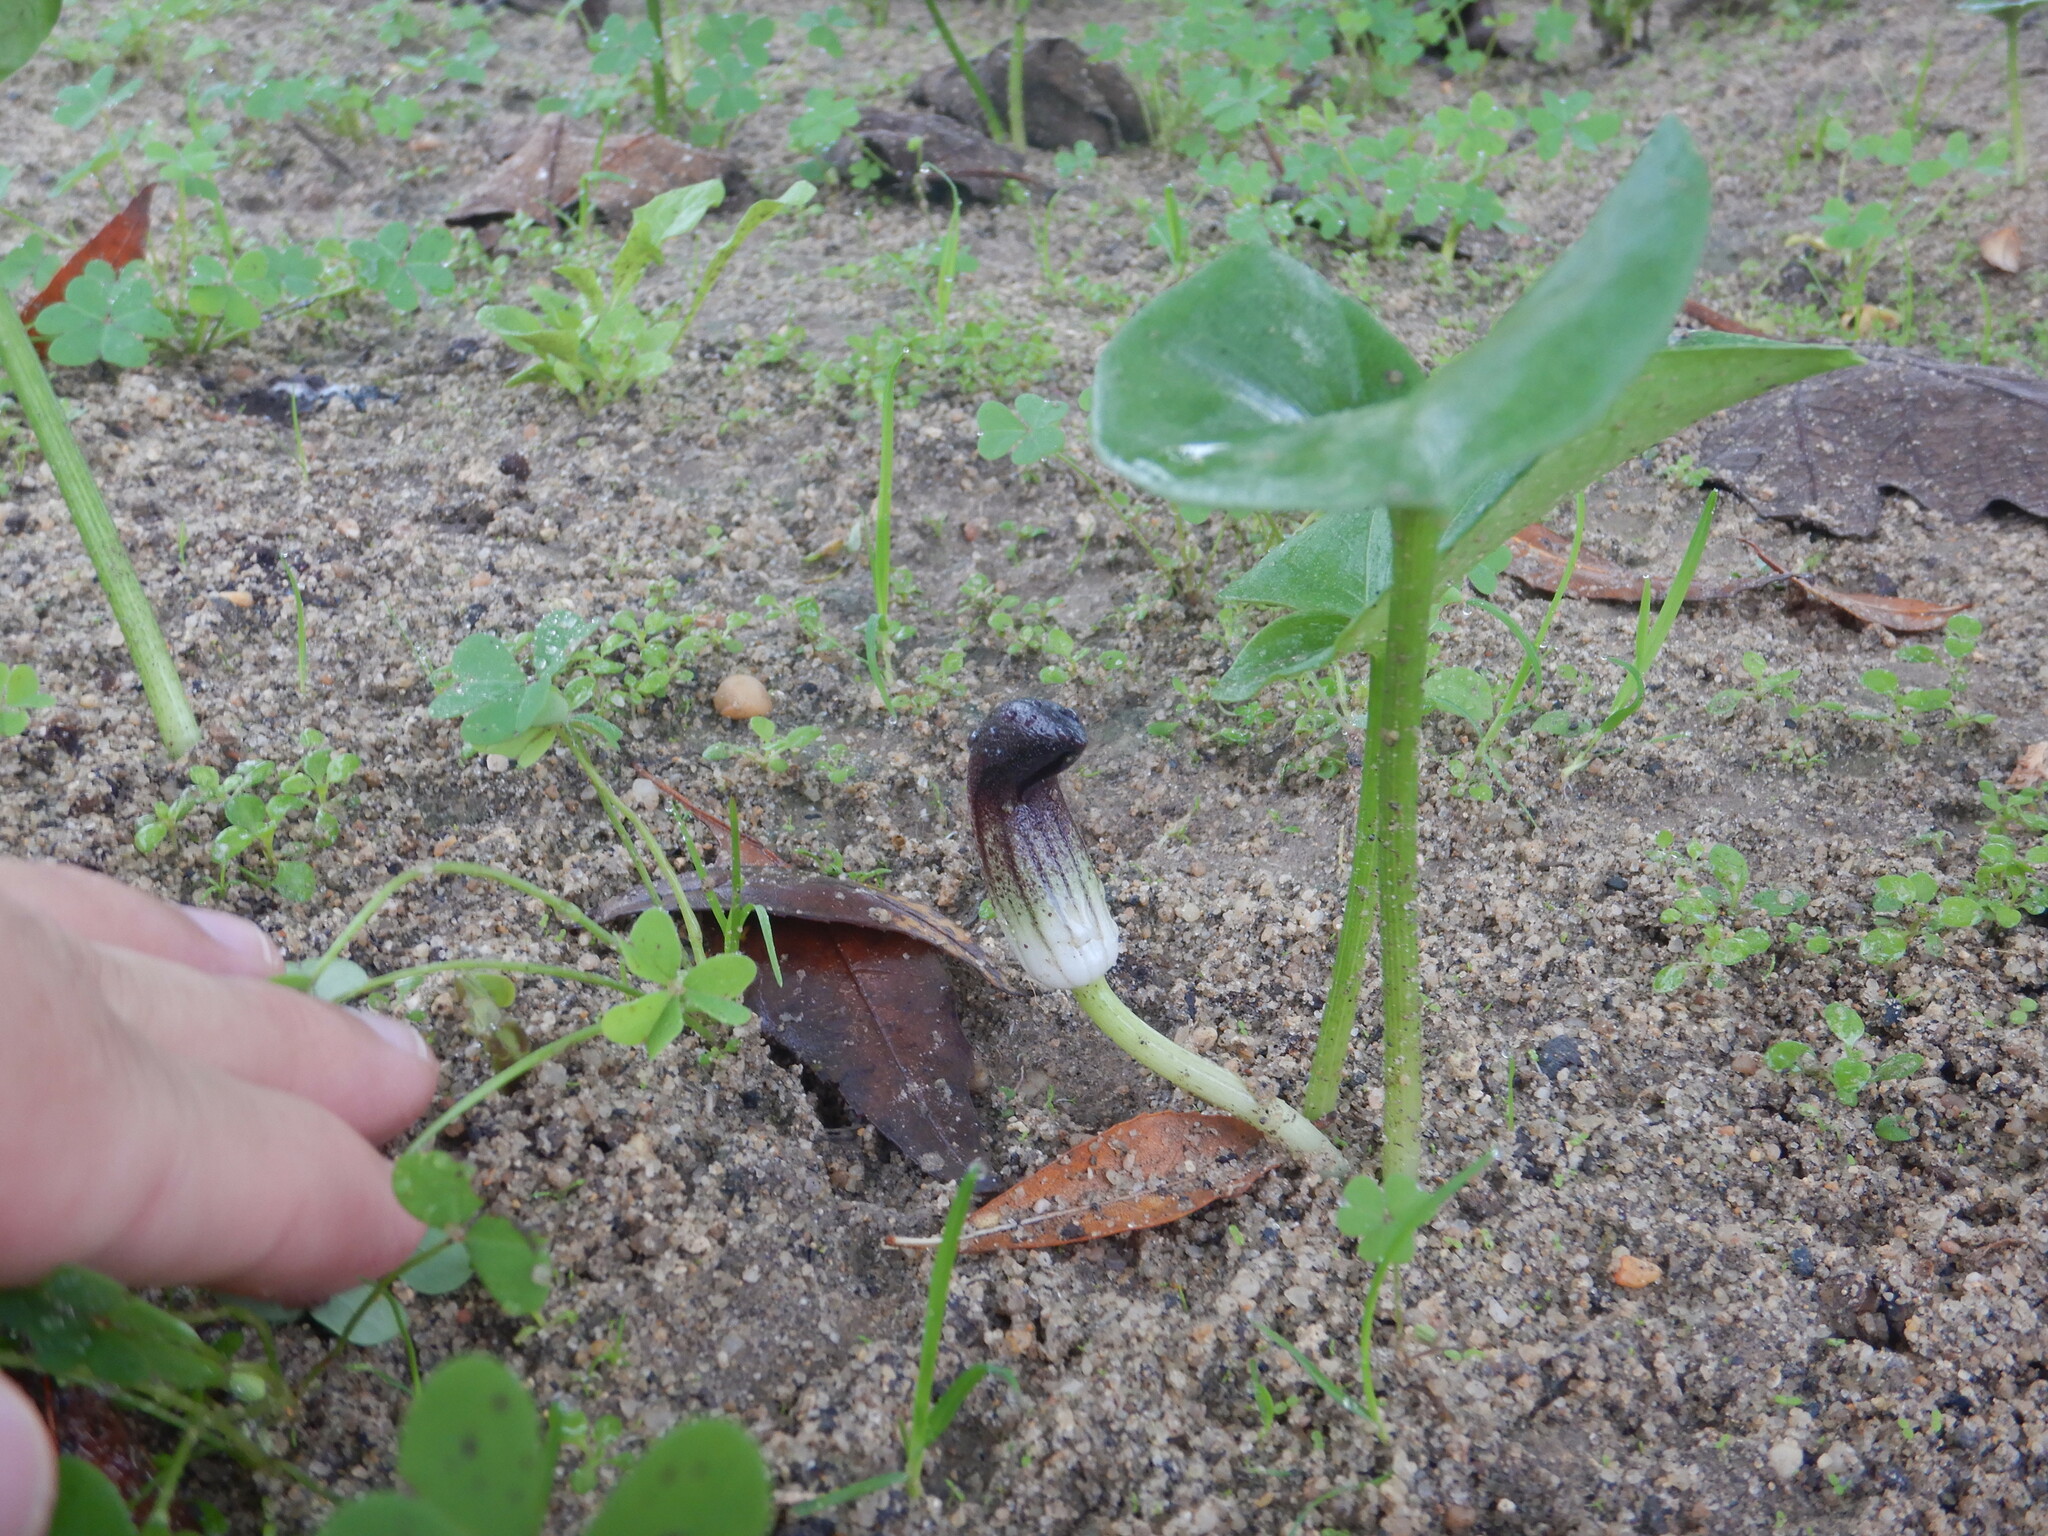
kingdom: Plantae
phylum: Tracheophyta
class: Liliopsida
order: Alismatales
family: Araceae
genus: Arisarum
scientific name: Arisarum simorrhinum
